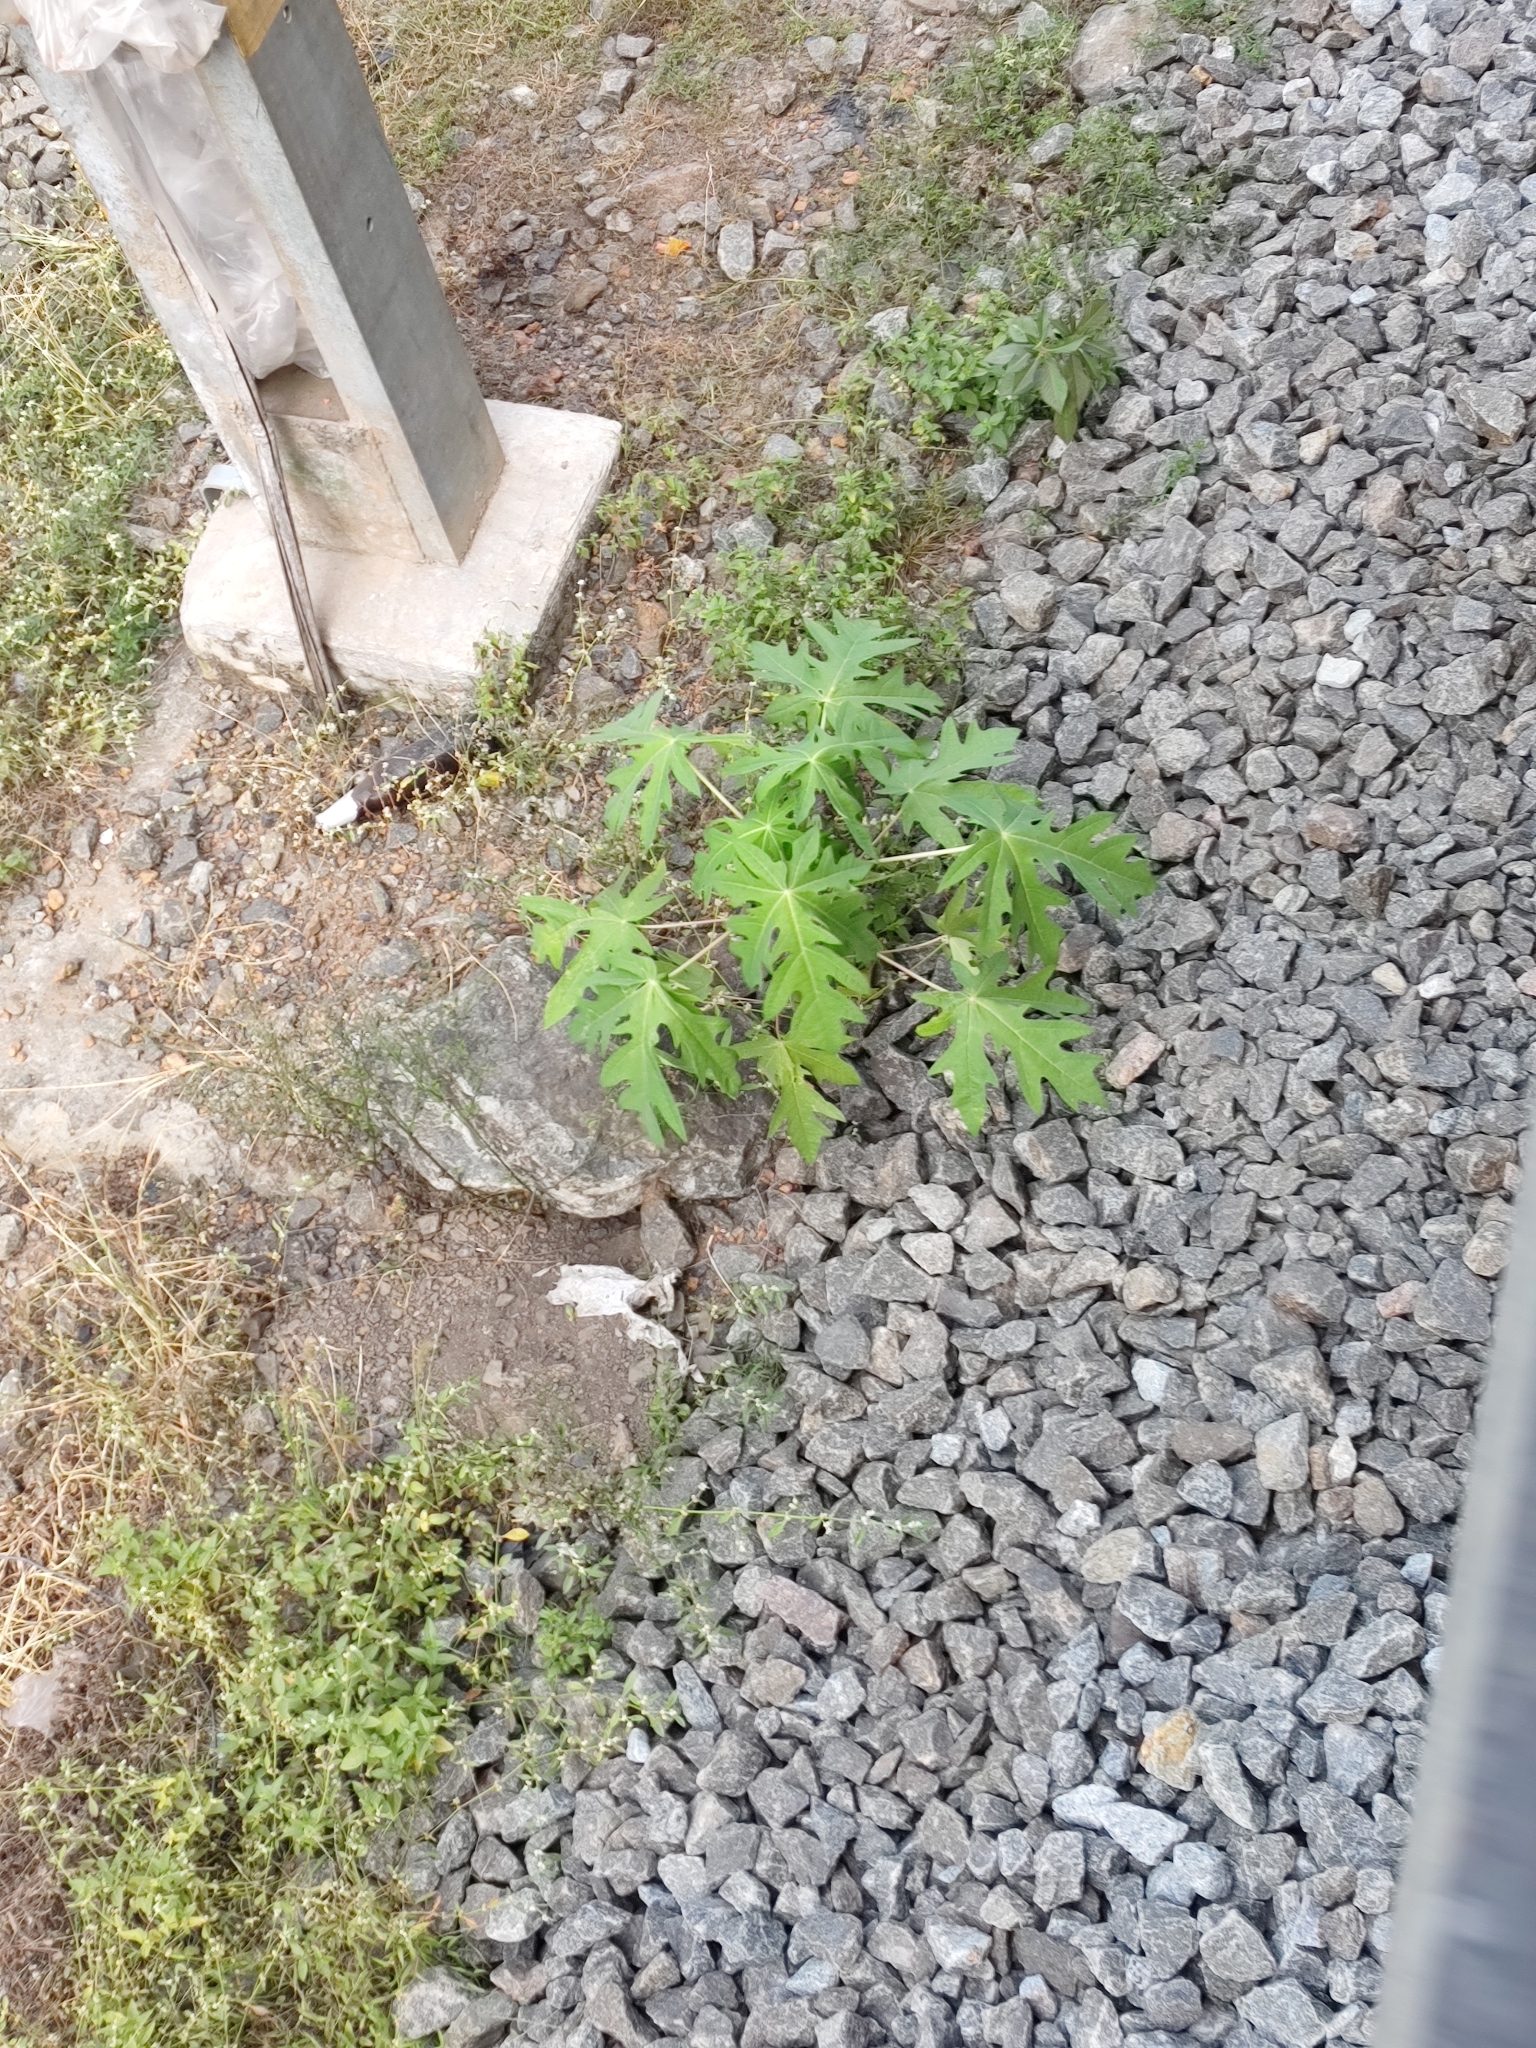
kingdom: Plantae
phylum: Tracheophyta
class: Magnoliopsida
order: Brassicales
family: Caricaceae
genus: Carica
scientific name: Carica papaya
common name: Papaya
